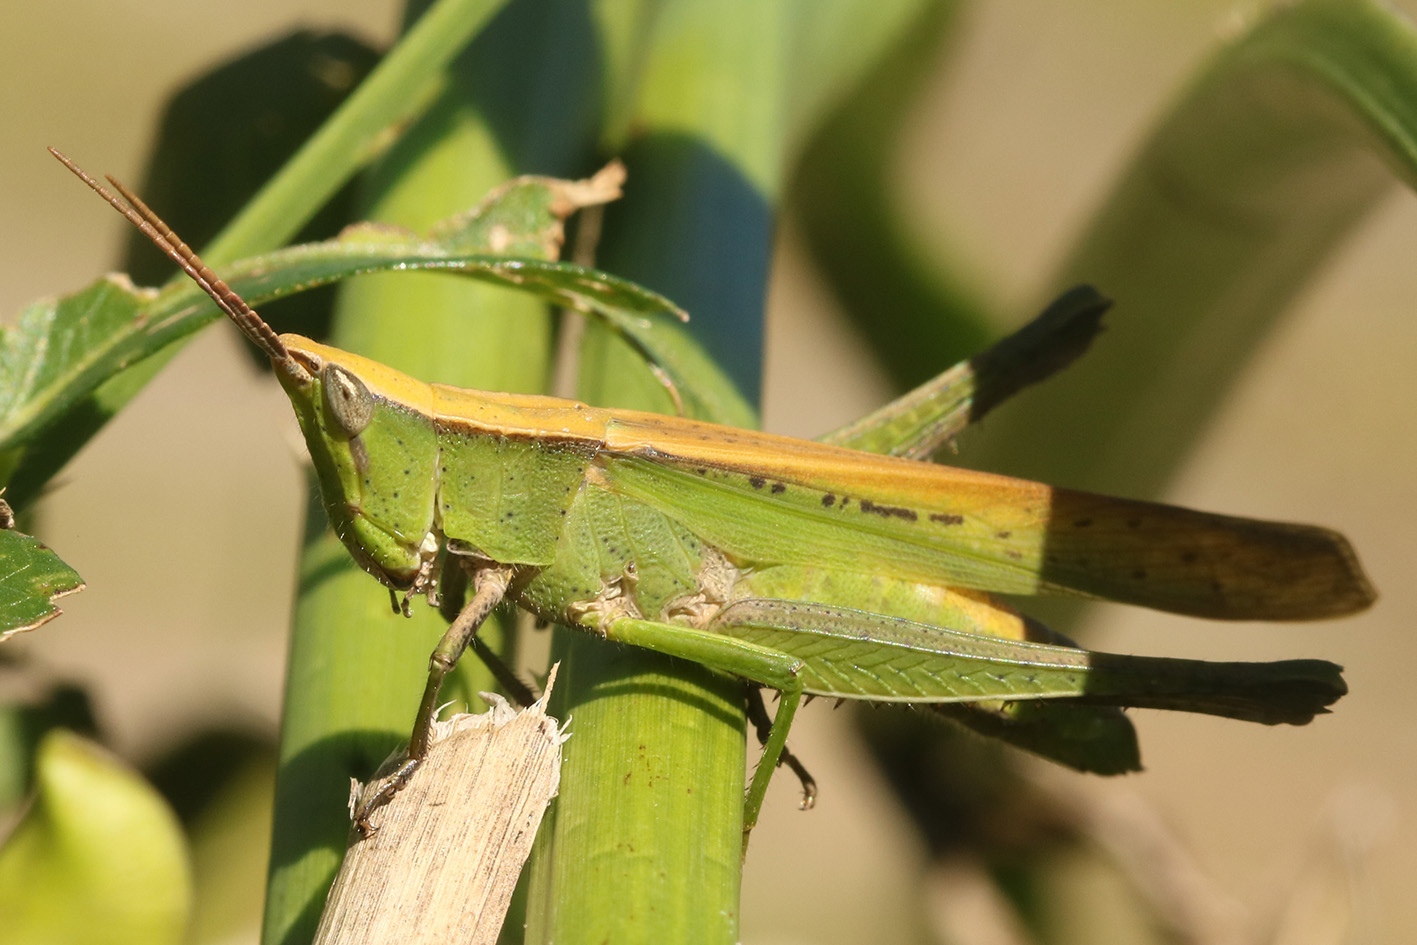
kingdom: Animalia
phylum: Arthropoda
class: Insecta
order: Orthoptera
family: Acrididae
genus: Metaleptea
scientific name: Metaleptea adspersa
